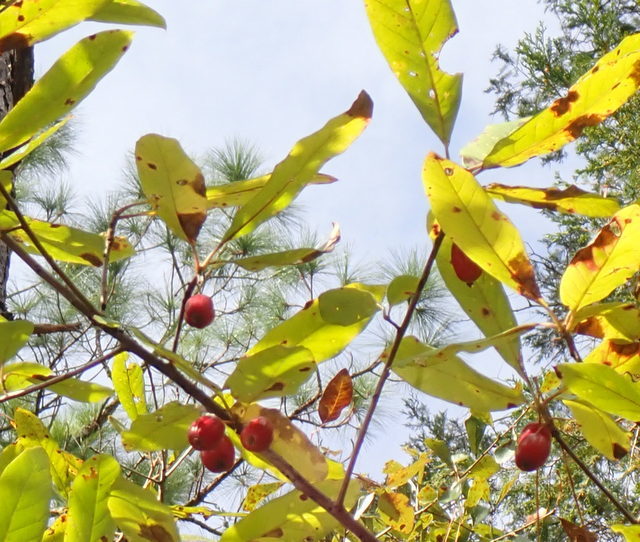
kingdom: Plantae
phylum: Tracheophyta
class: Magnoliopsida
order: Cornales
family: Nyssaceae
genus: Nyssa
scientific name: Nyssa ogeche
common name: Ogeechee tupelo
